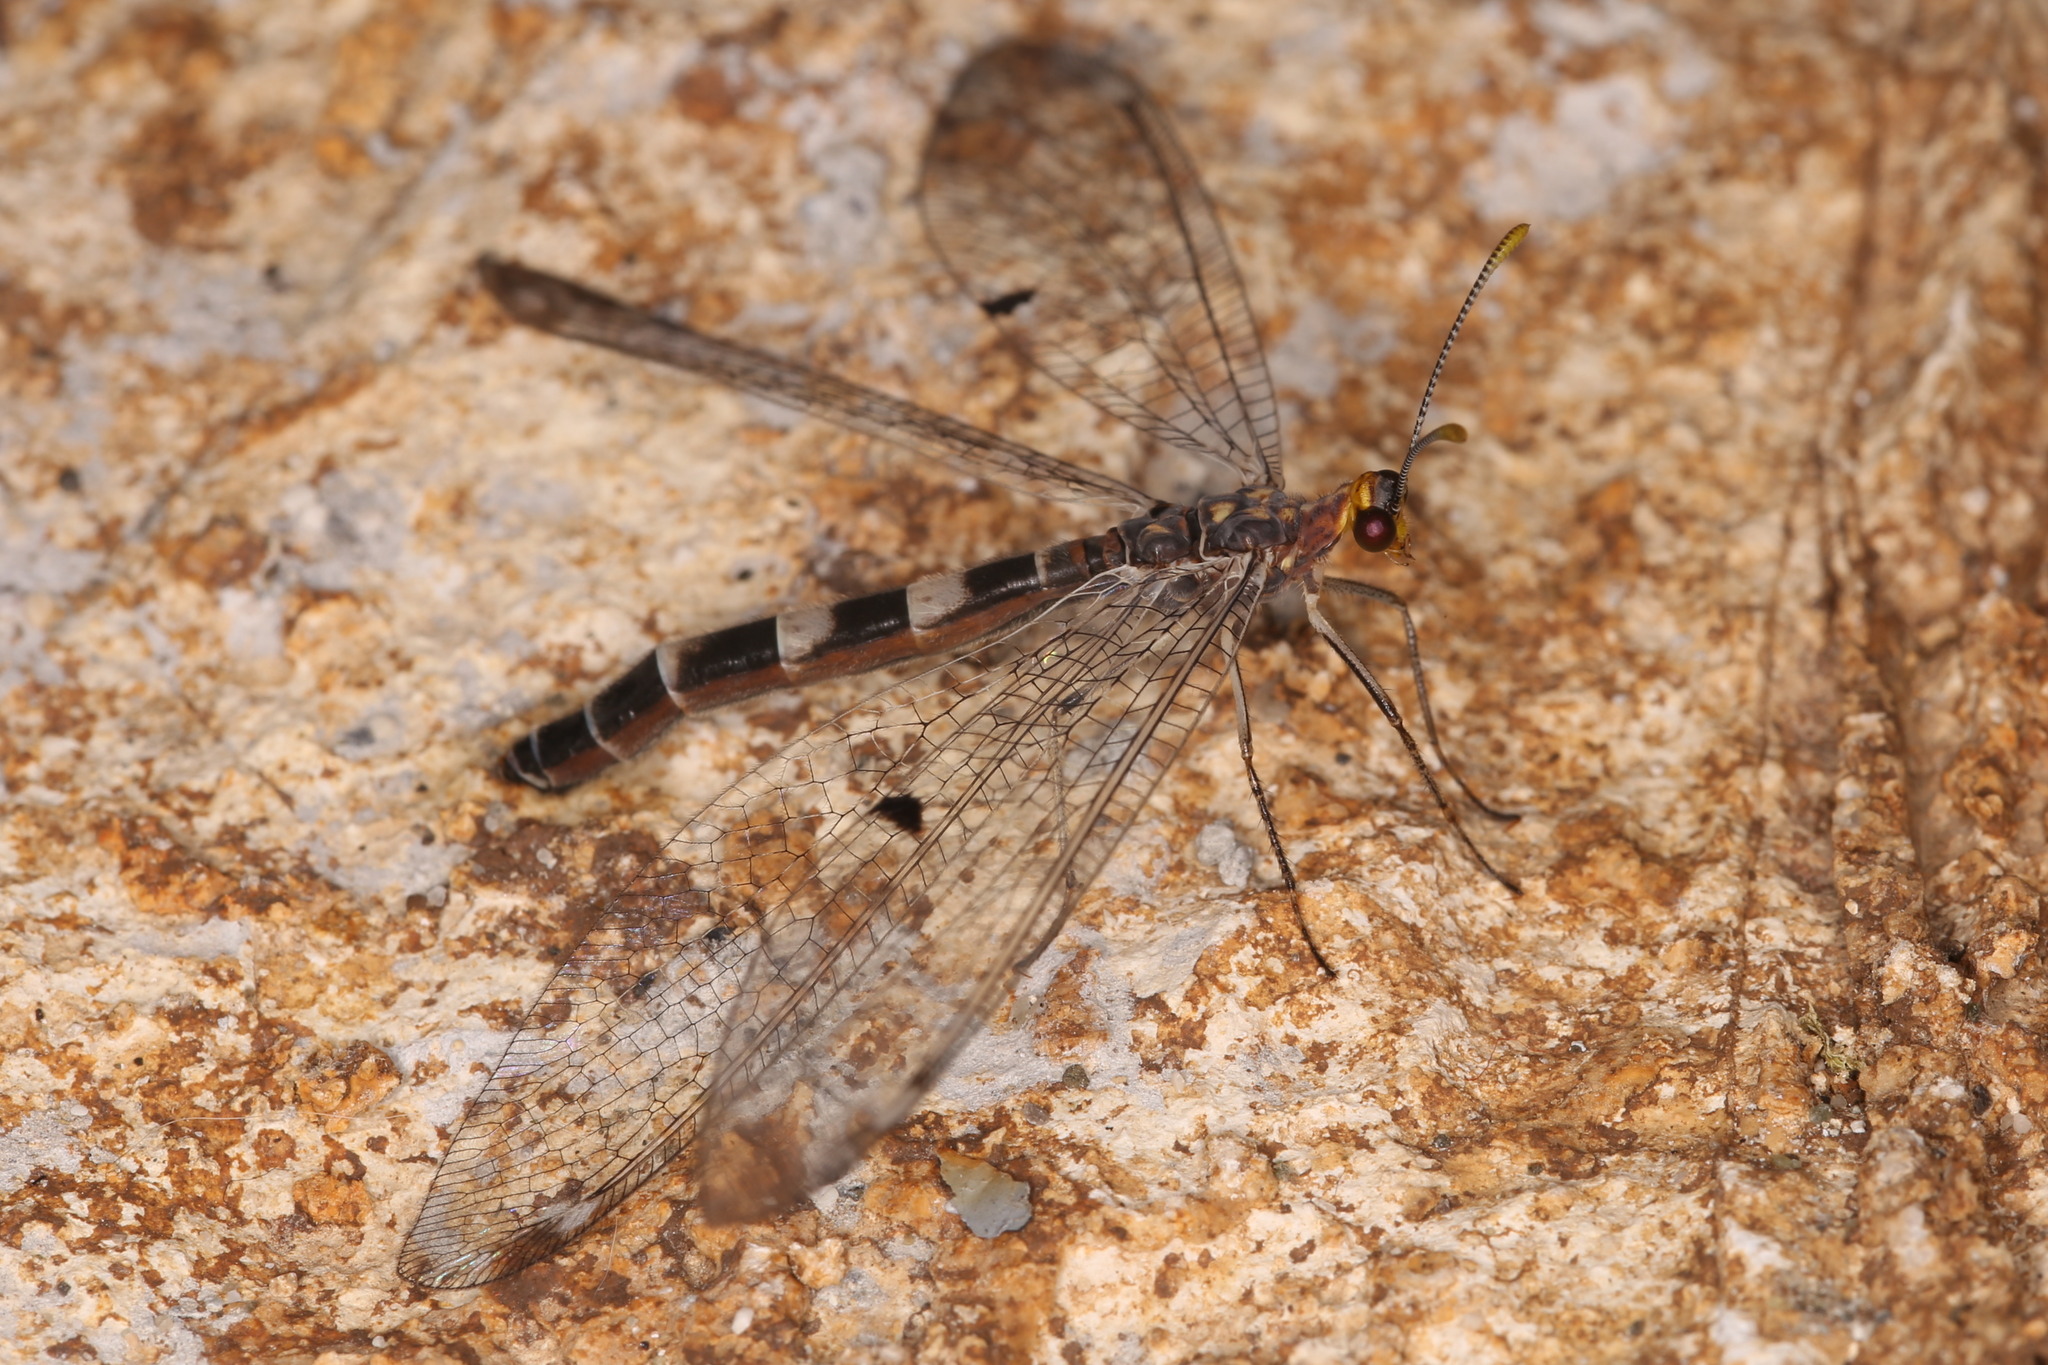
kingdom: Animalia
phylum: Arthropoda
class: Insecta
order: Neuroptera
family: Myrmeleontidae
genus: Megistopus
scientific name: Megistopus flavicornis
